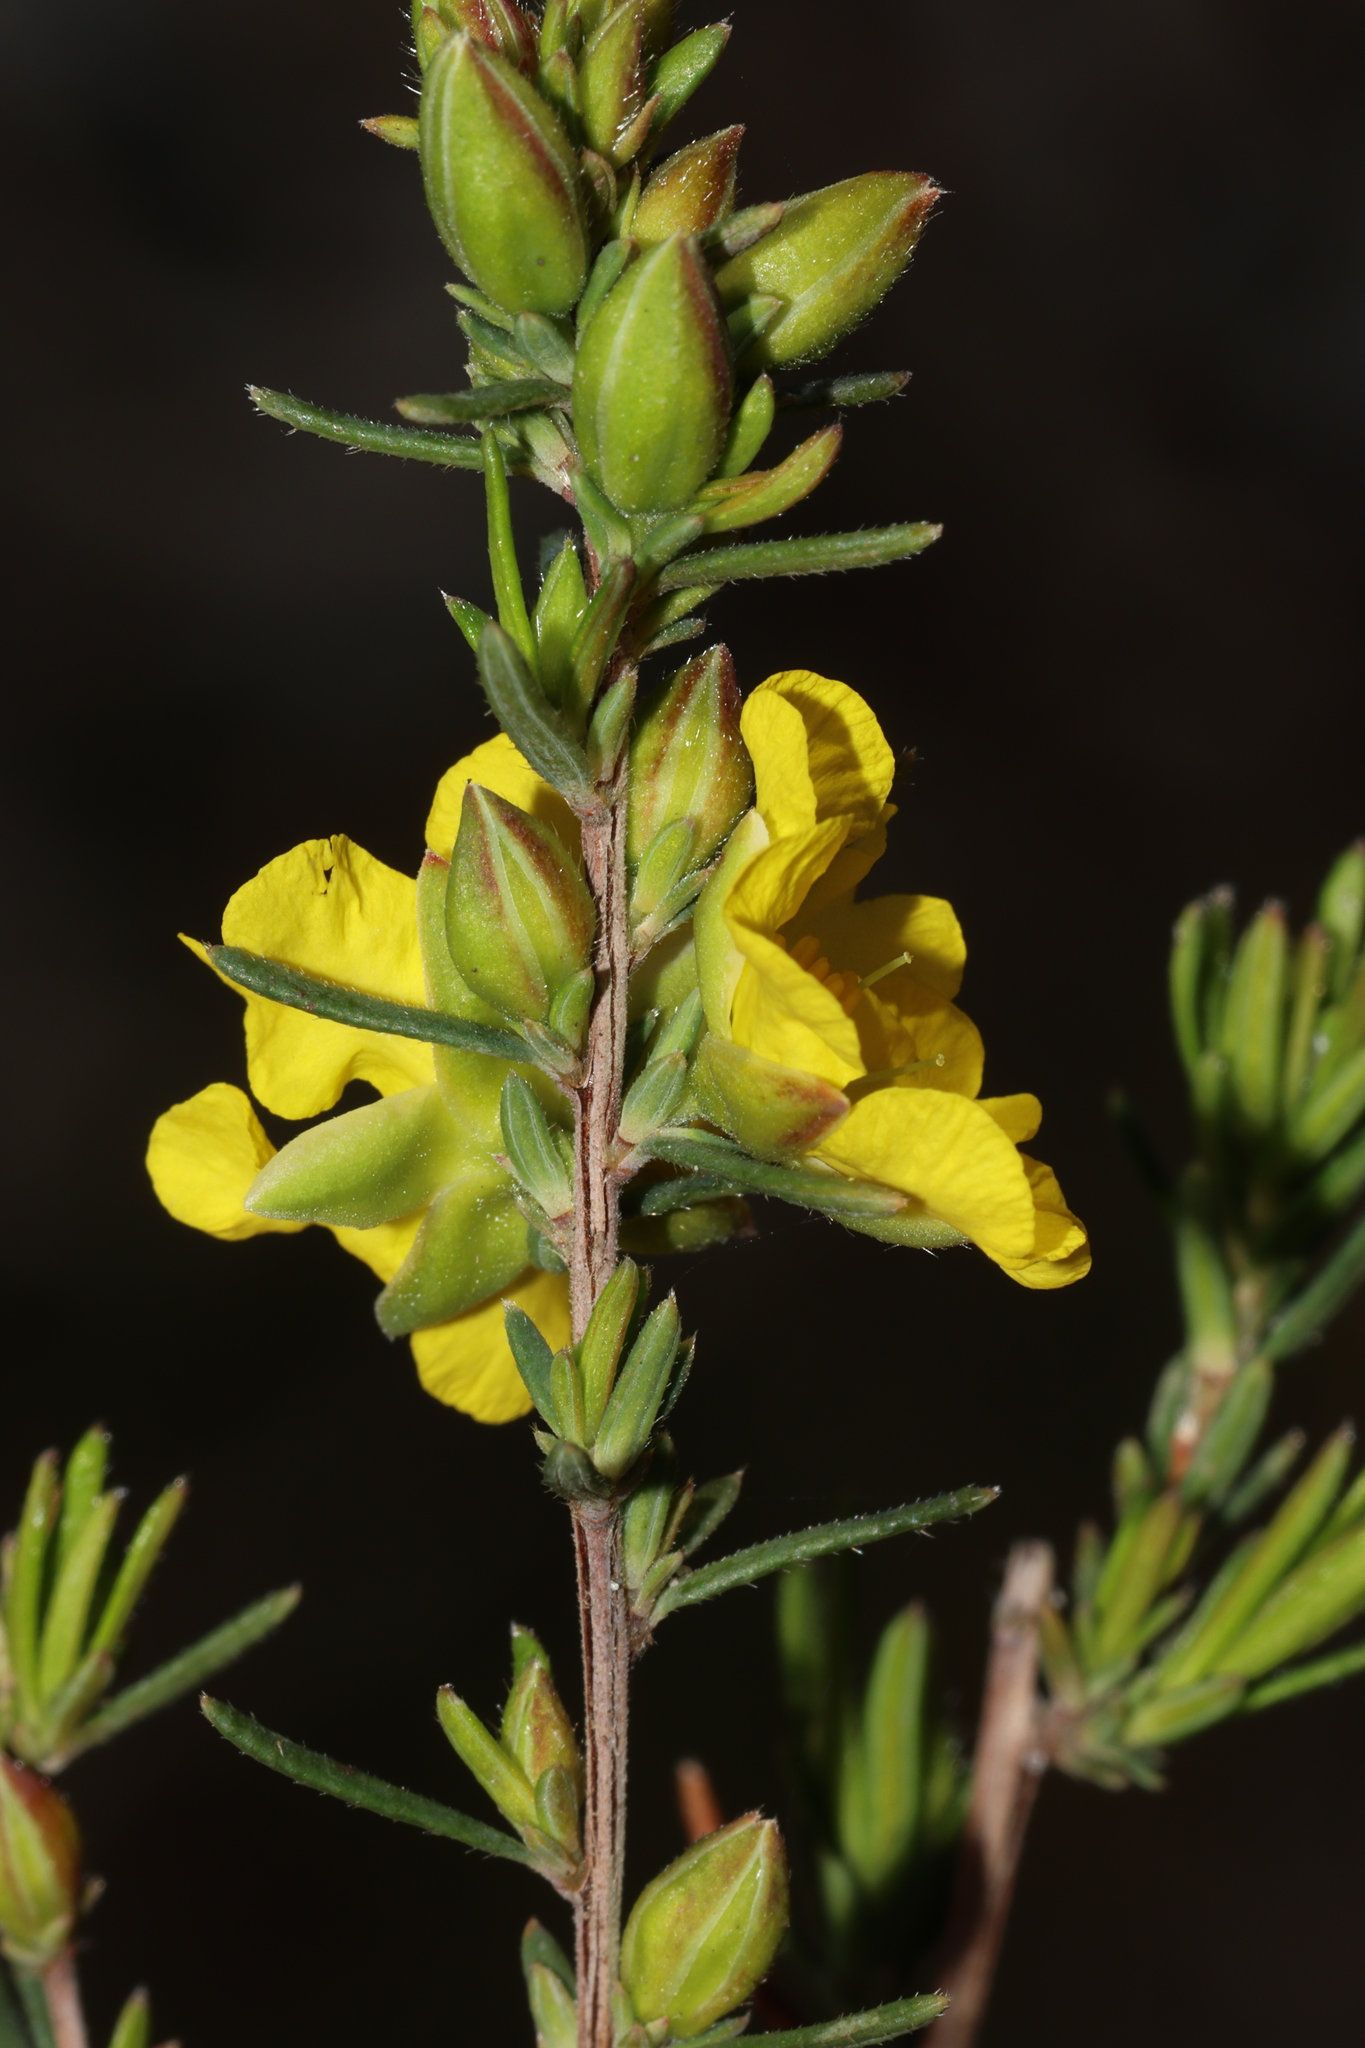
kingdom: Plantae
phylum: Tracheophyta
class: Magnoliopsida
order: Dilleniales
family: Dilleniaceae
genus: Hibbertia
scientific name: Hibbertia riparia
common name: Erect guinea-flower
